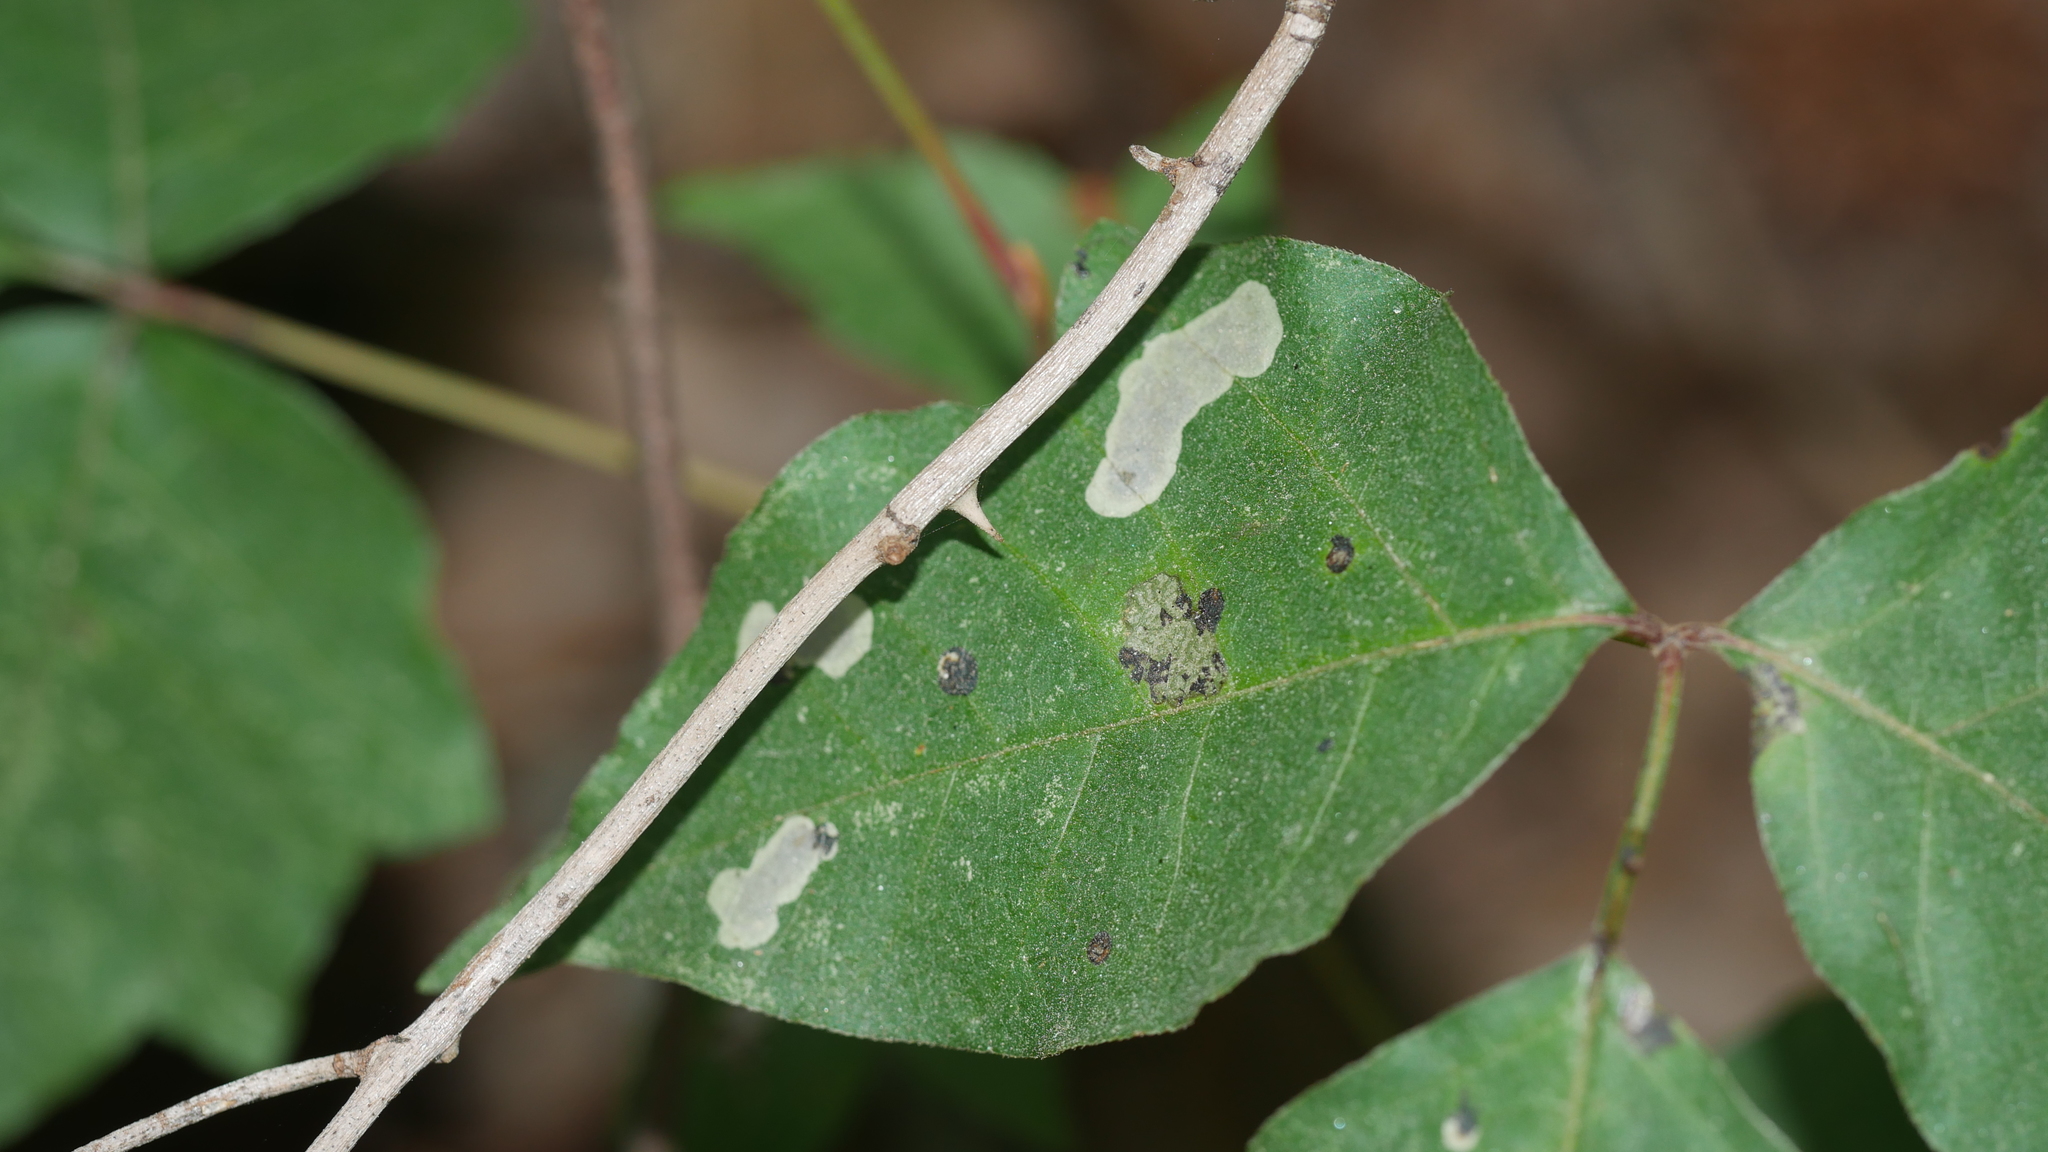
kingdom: Animalia
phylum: Arthropoda
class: Insecta
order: Lepidoptera
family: Gracillariidae
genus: Cameraria
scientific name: Cameraria guttifinitella
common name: Poison ivy leaf-miner moth
